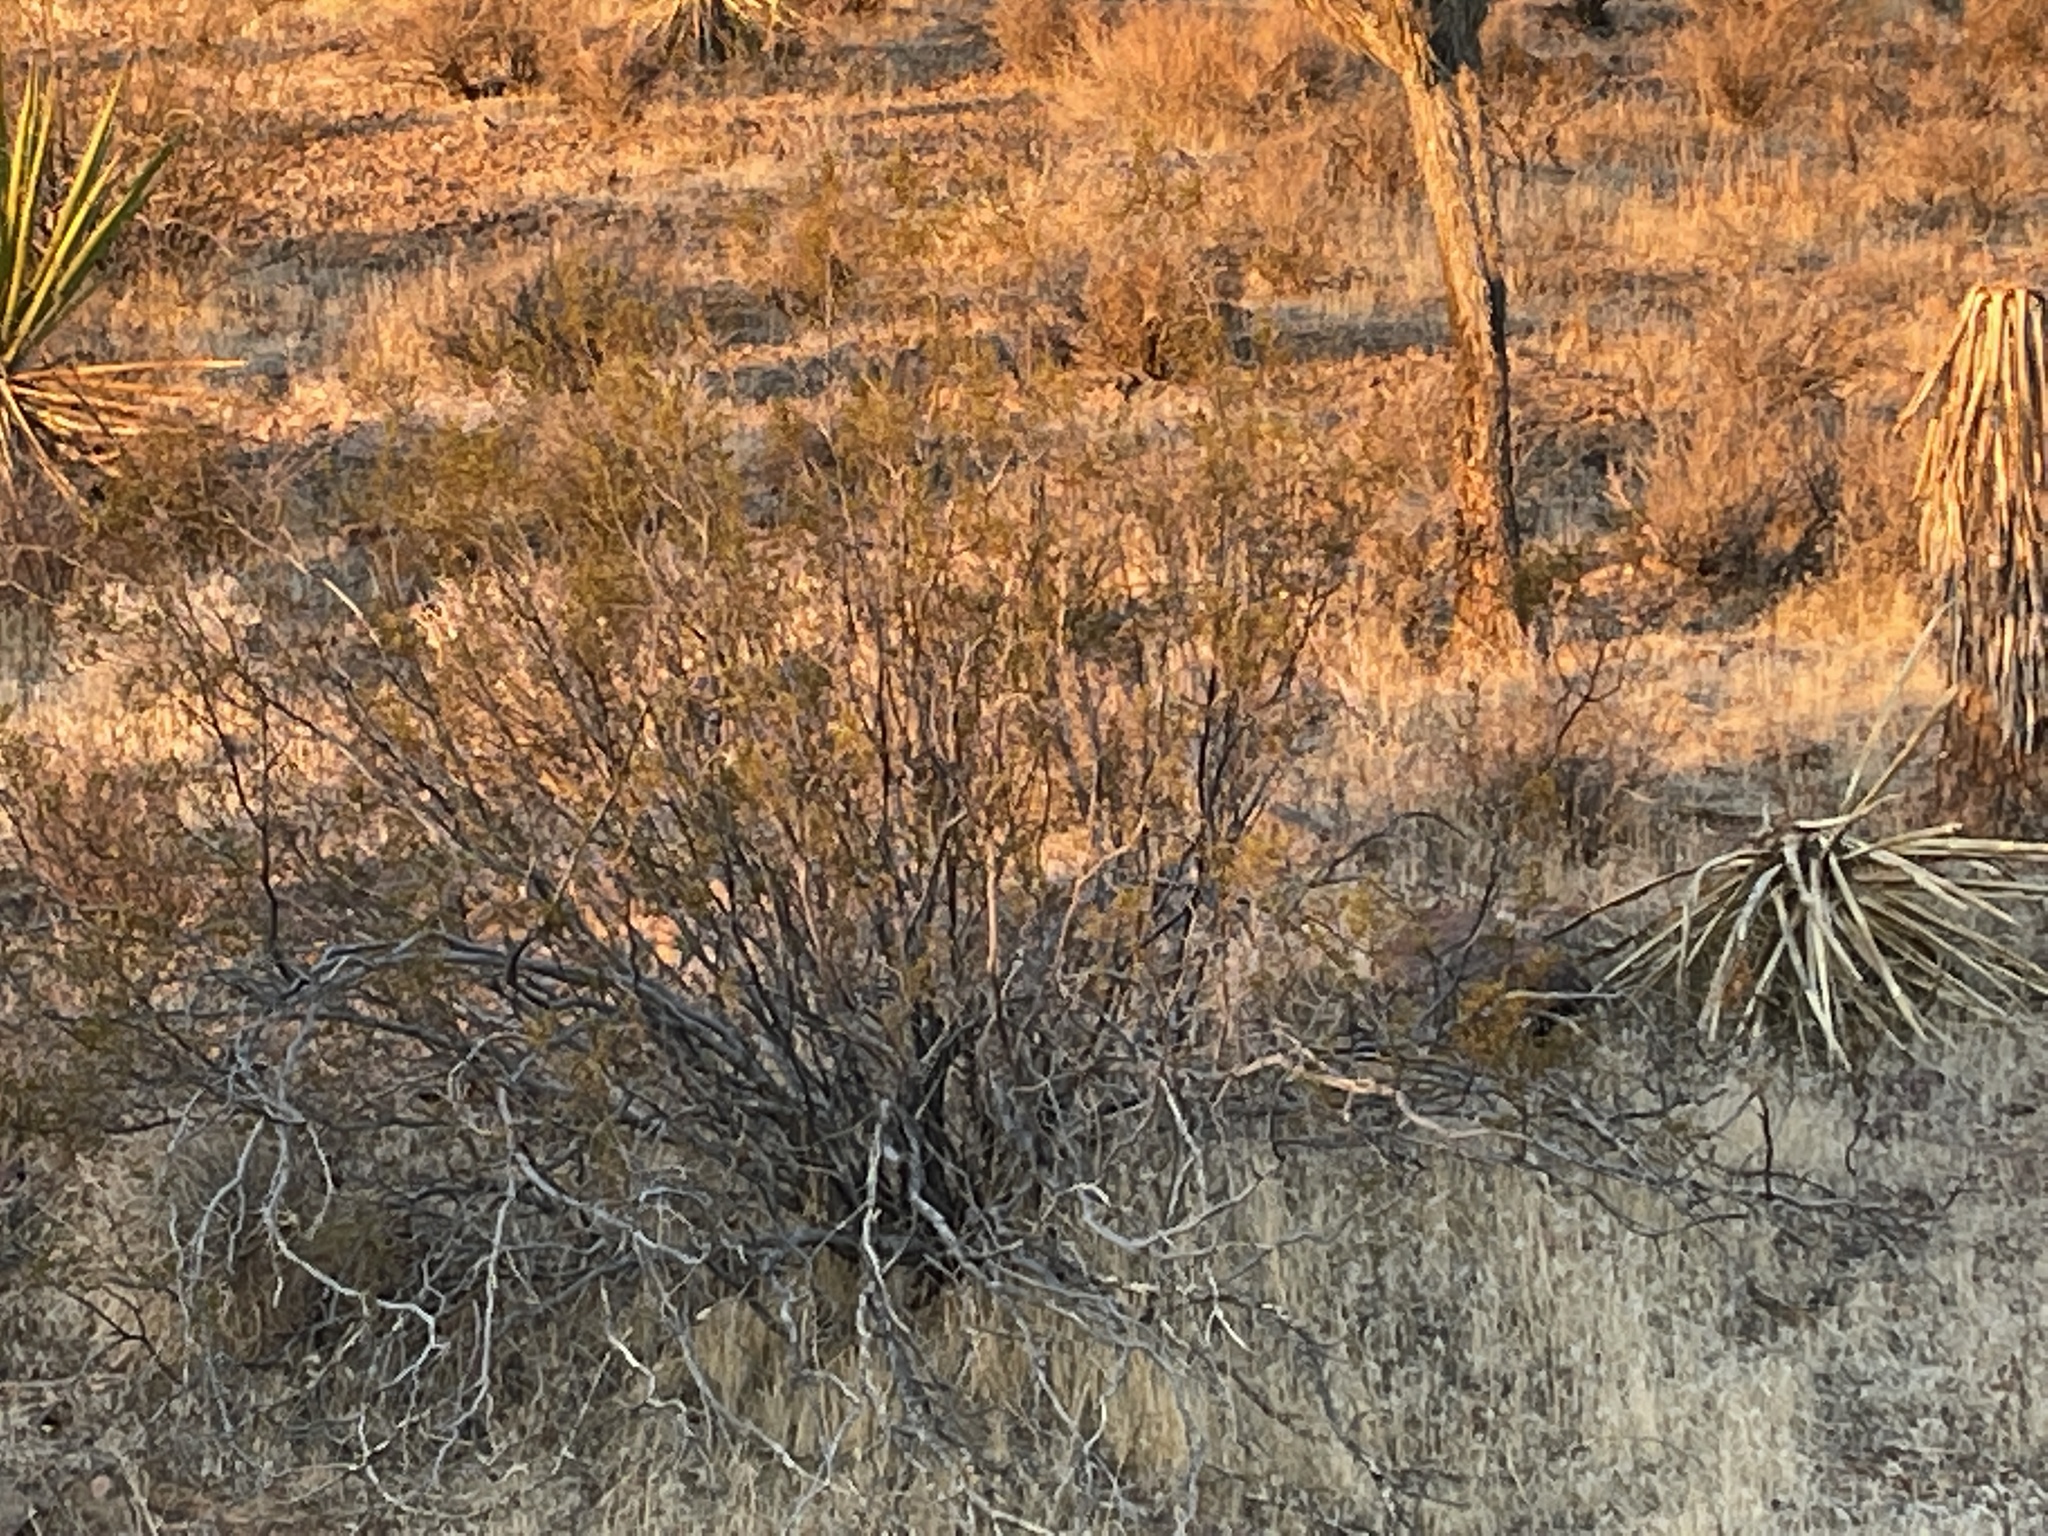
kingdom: Plantae
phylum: Tracheophyta
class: Magnoliopsida
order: Zygophyllales
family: Zygophyllaceae
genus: Larrea
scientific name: Larrea tridentata
